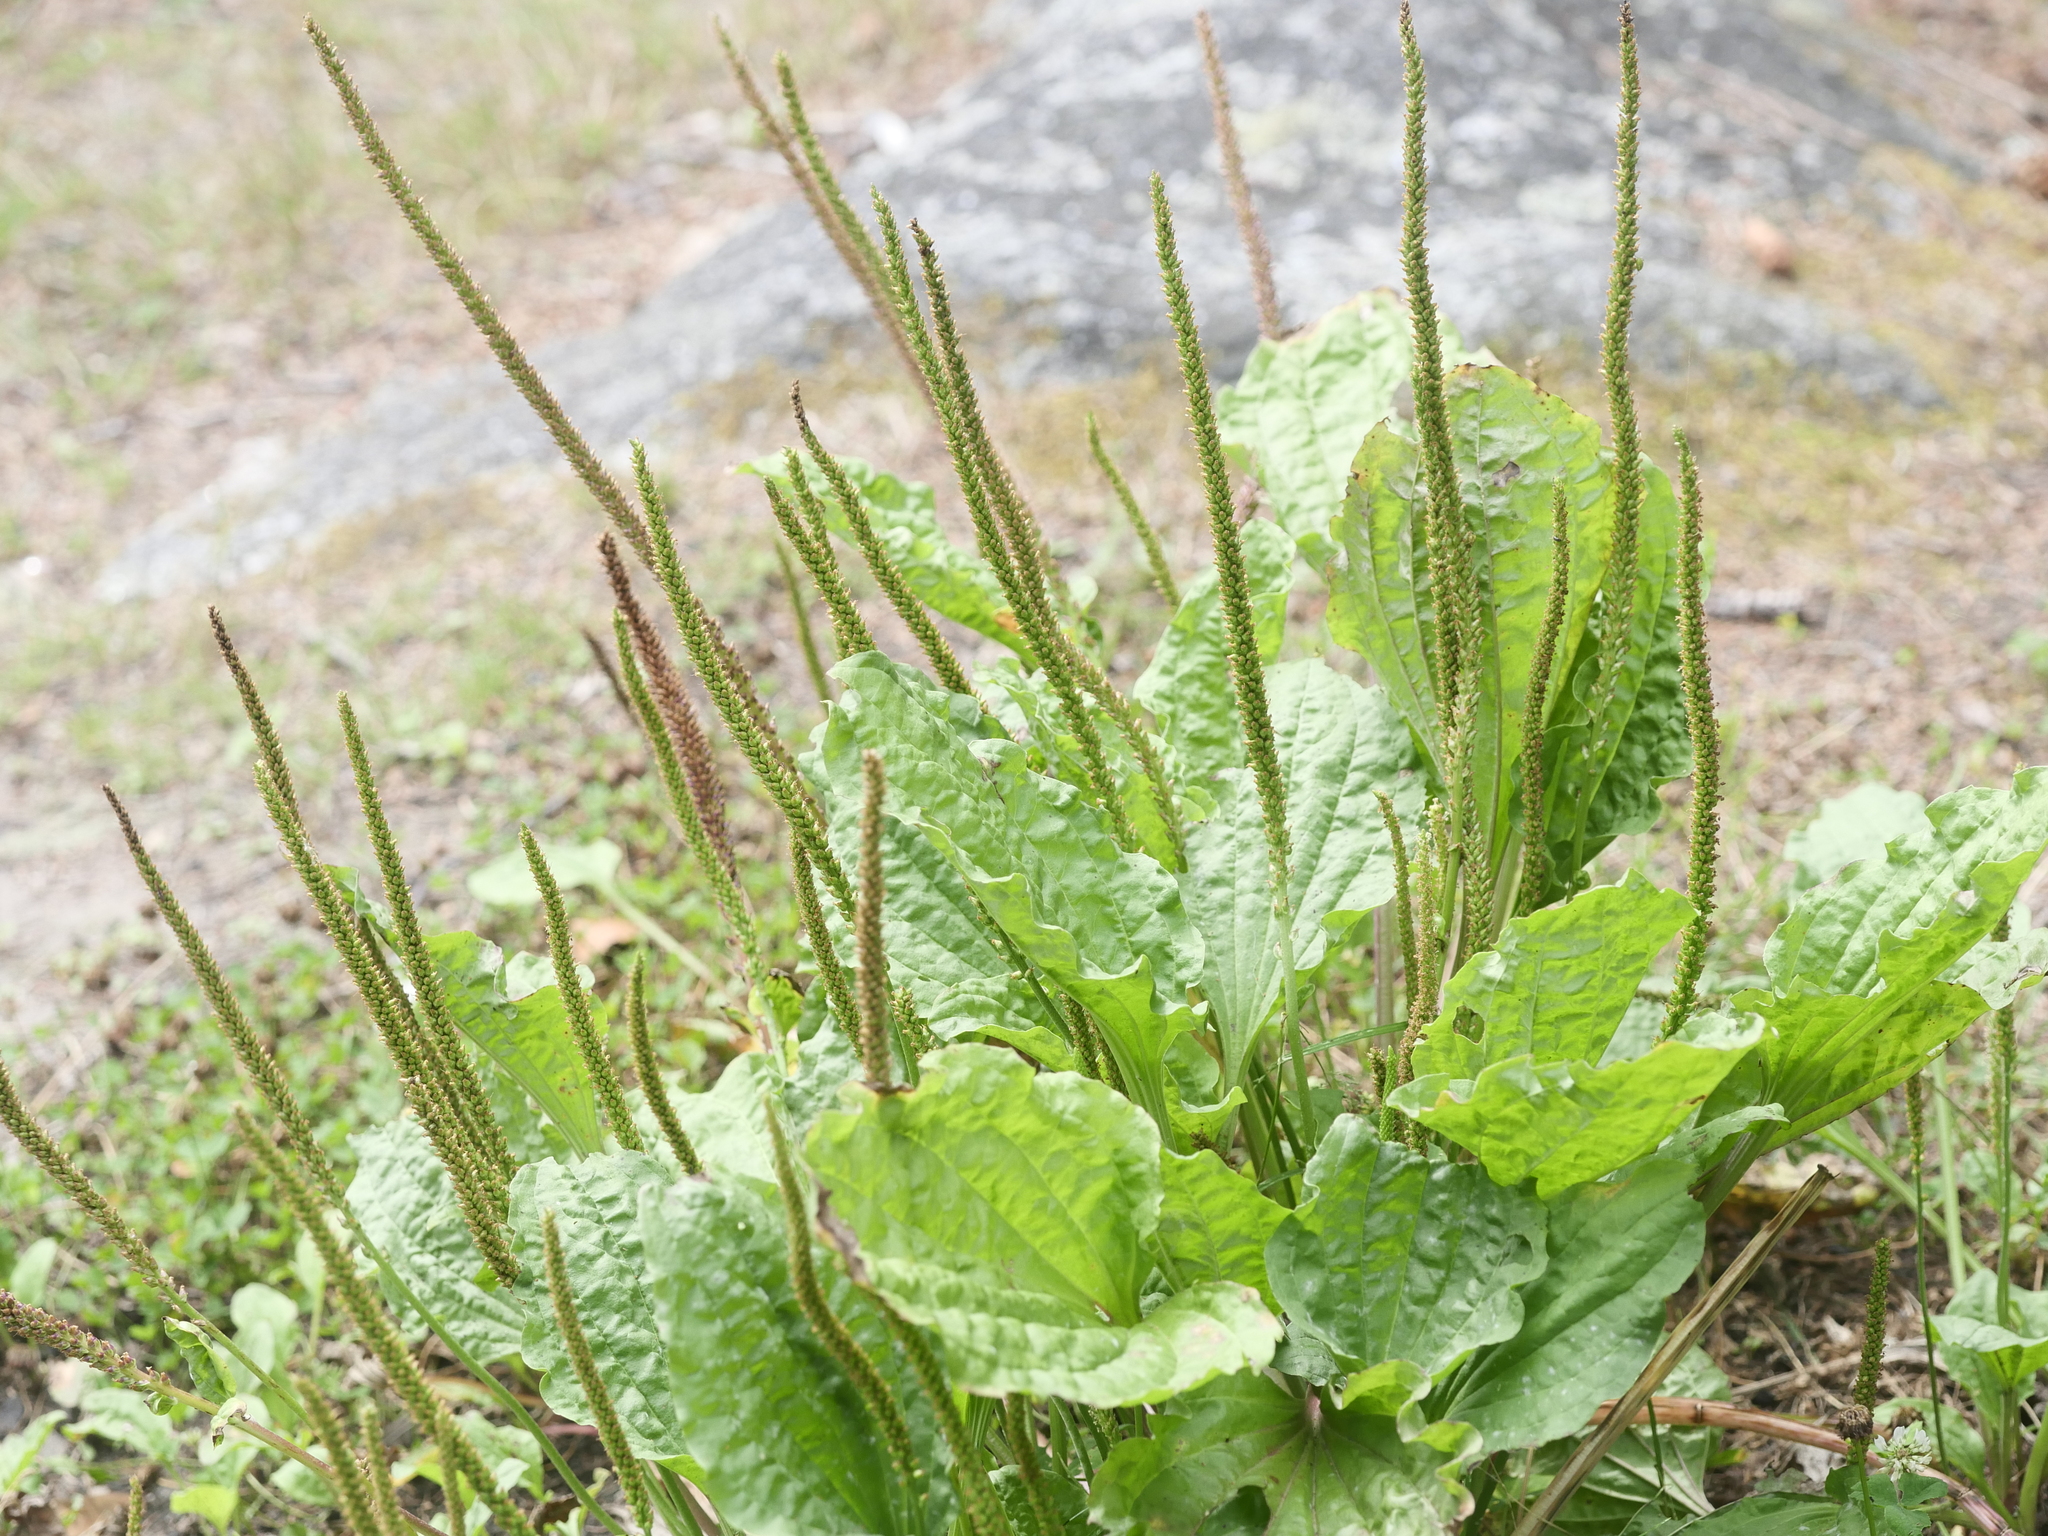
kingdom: Plantae
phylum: Tracheophyta
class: Magnoliopsida
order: Lamiales
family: Plantaginaceae
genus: Plantago
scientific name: Plantago major
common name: Common plantain
